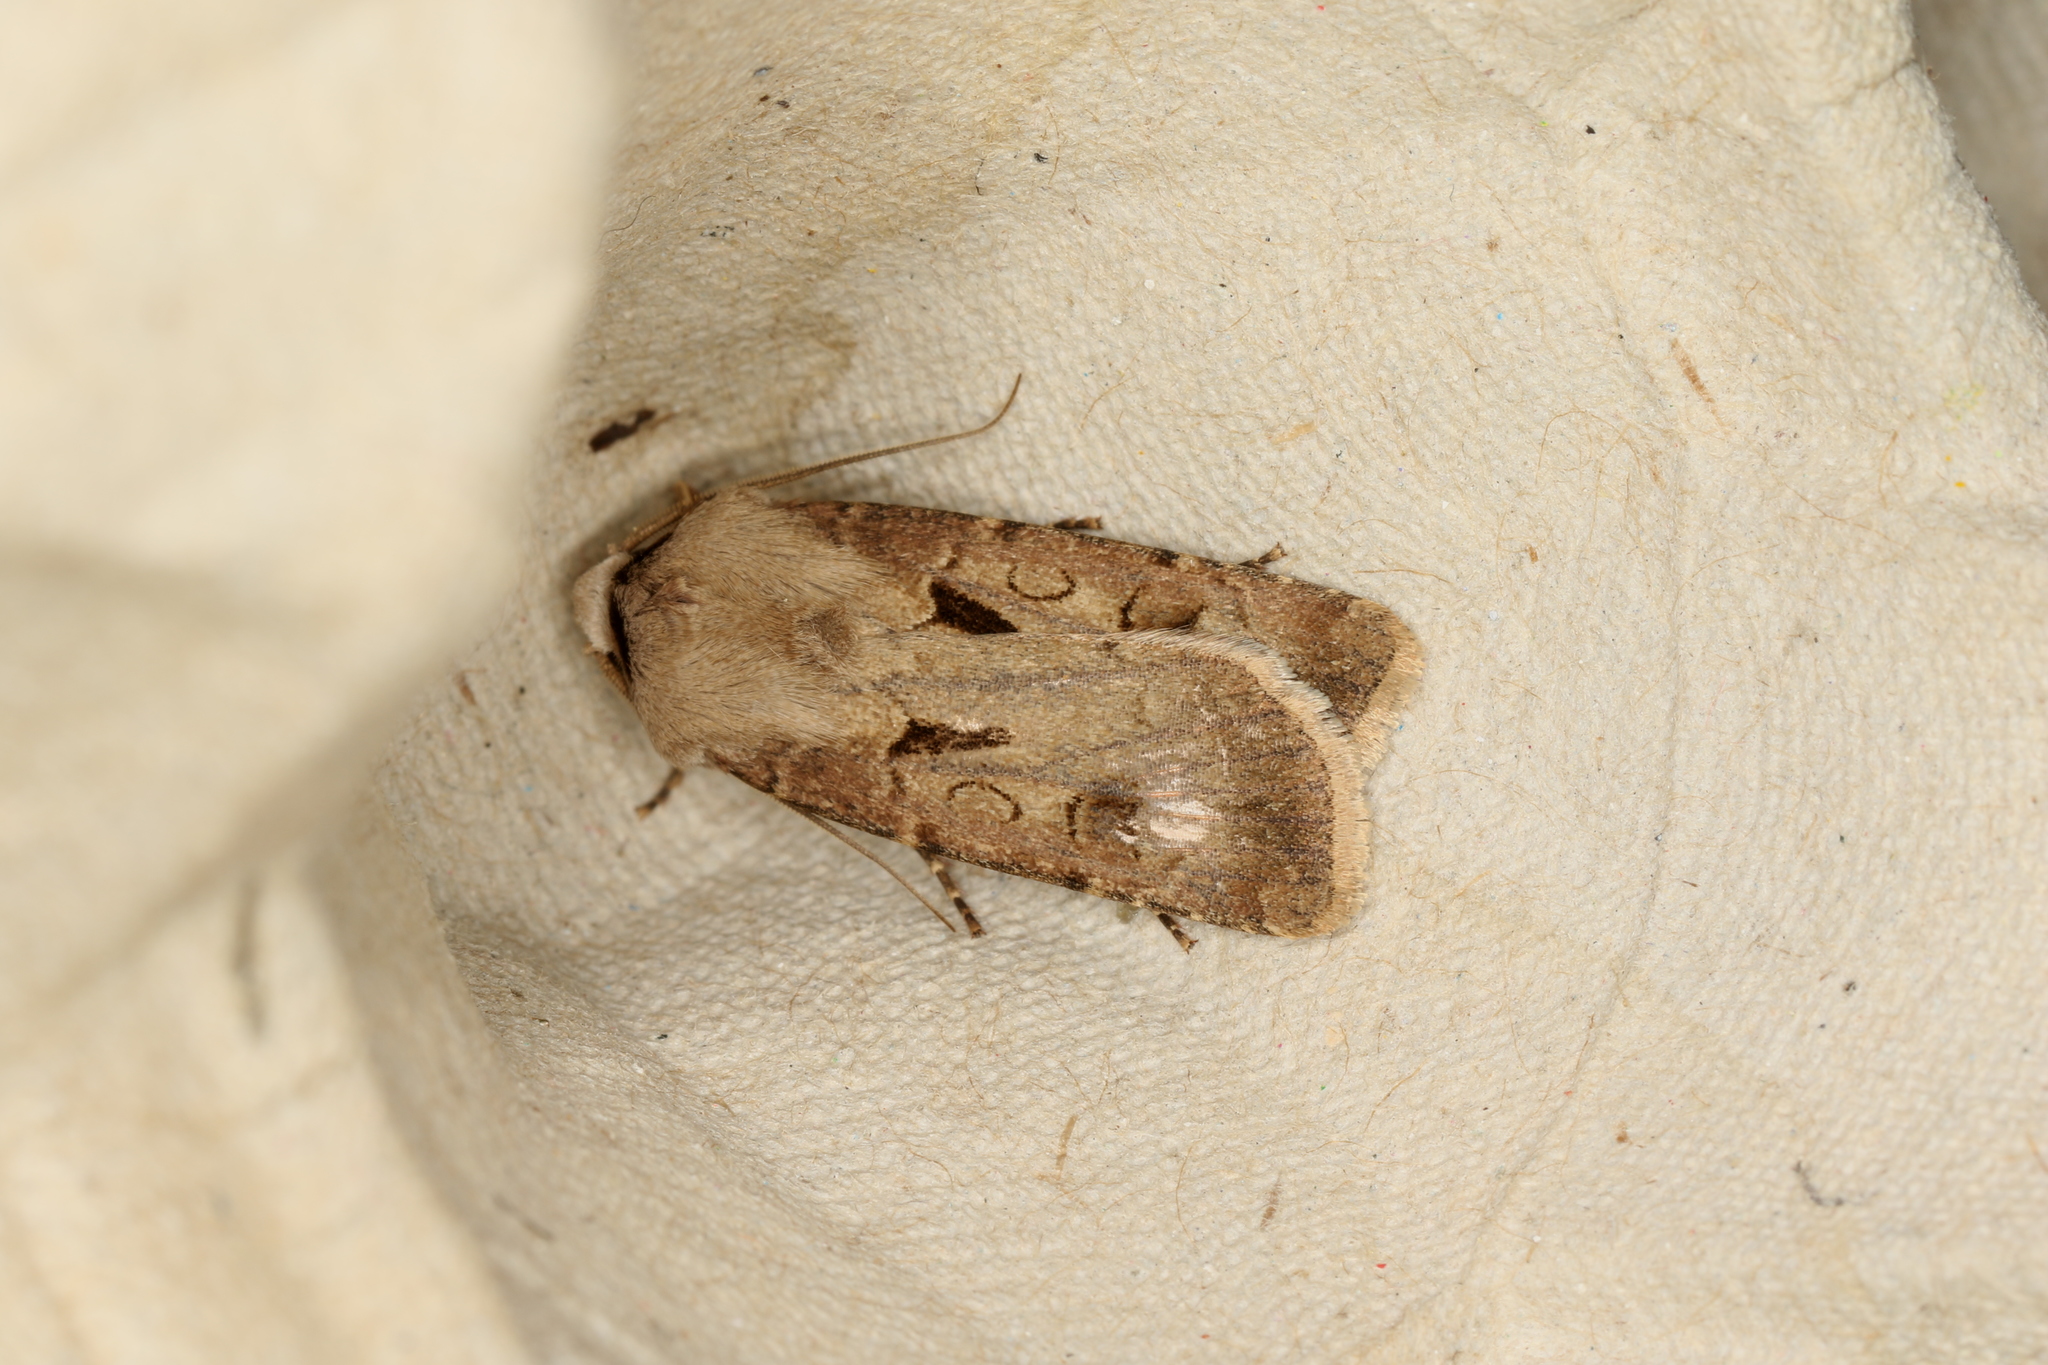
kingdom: Animalia
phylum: Arthropoda
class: Insecta
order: Lepidoptera
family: Noctuidae
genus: Agrotis
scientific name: Agrotis exclamationis
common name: Heart and dart
